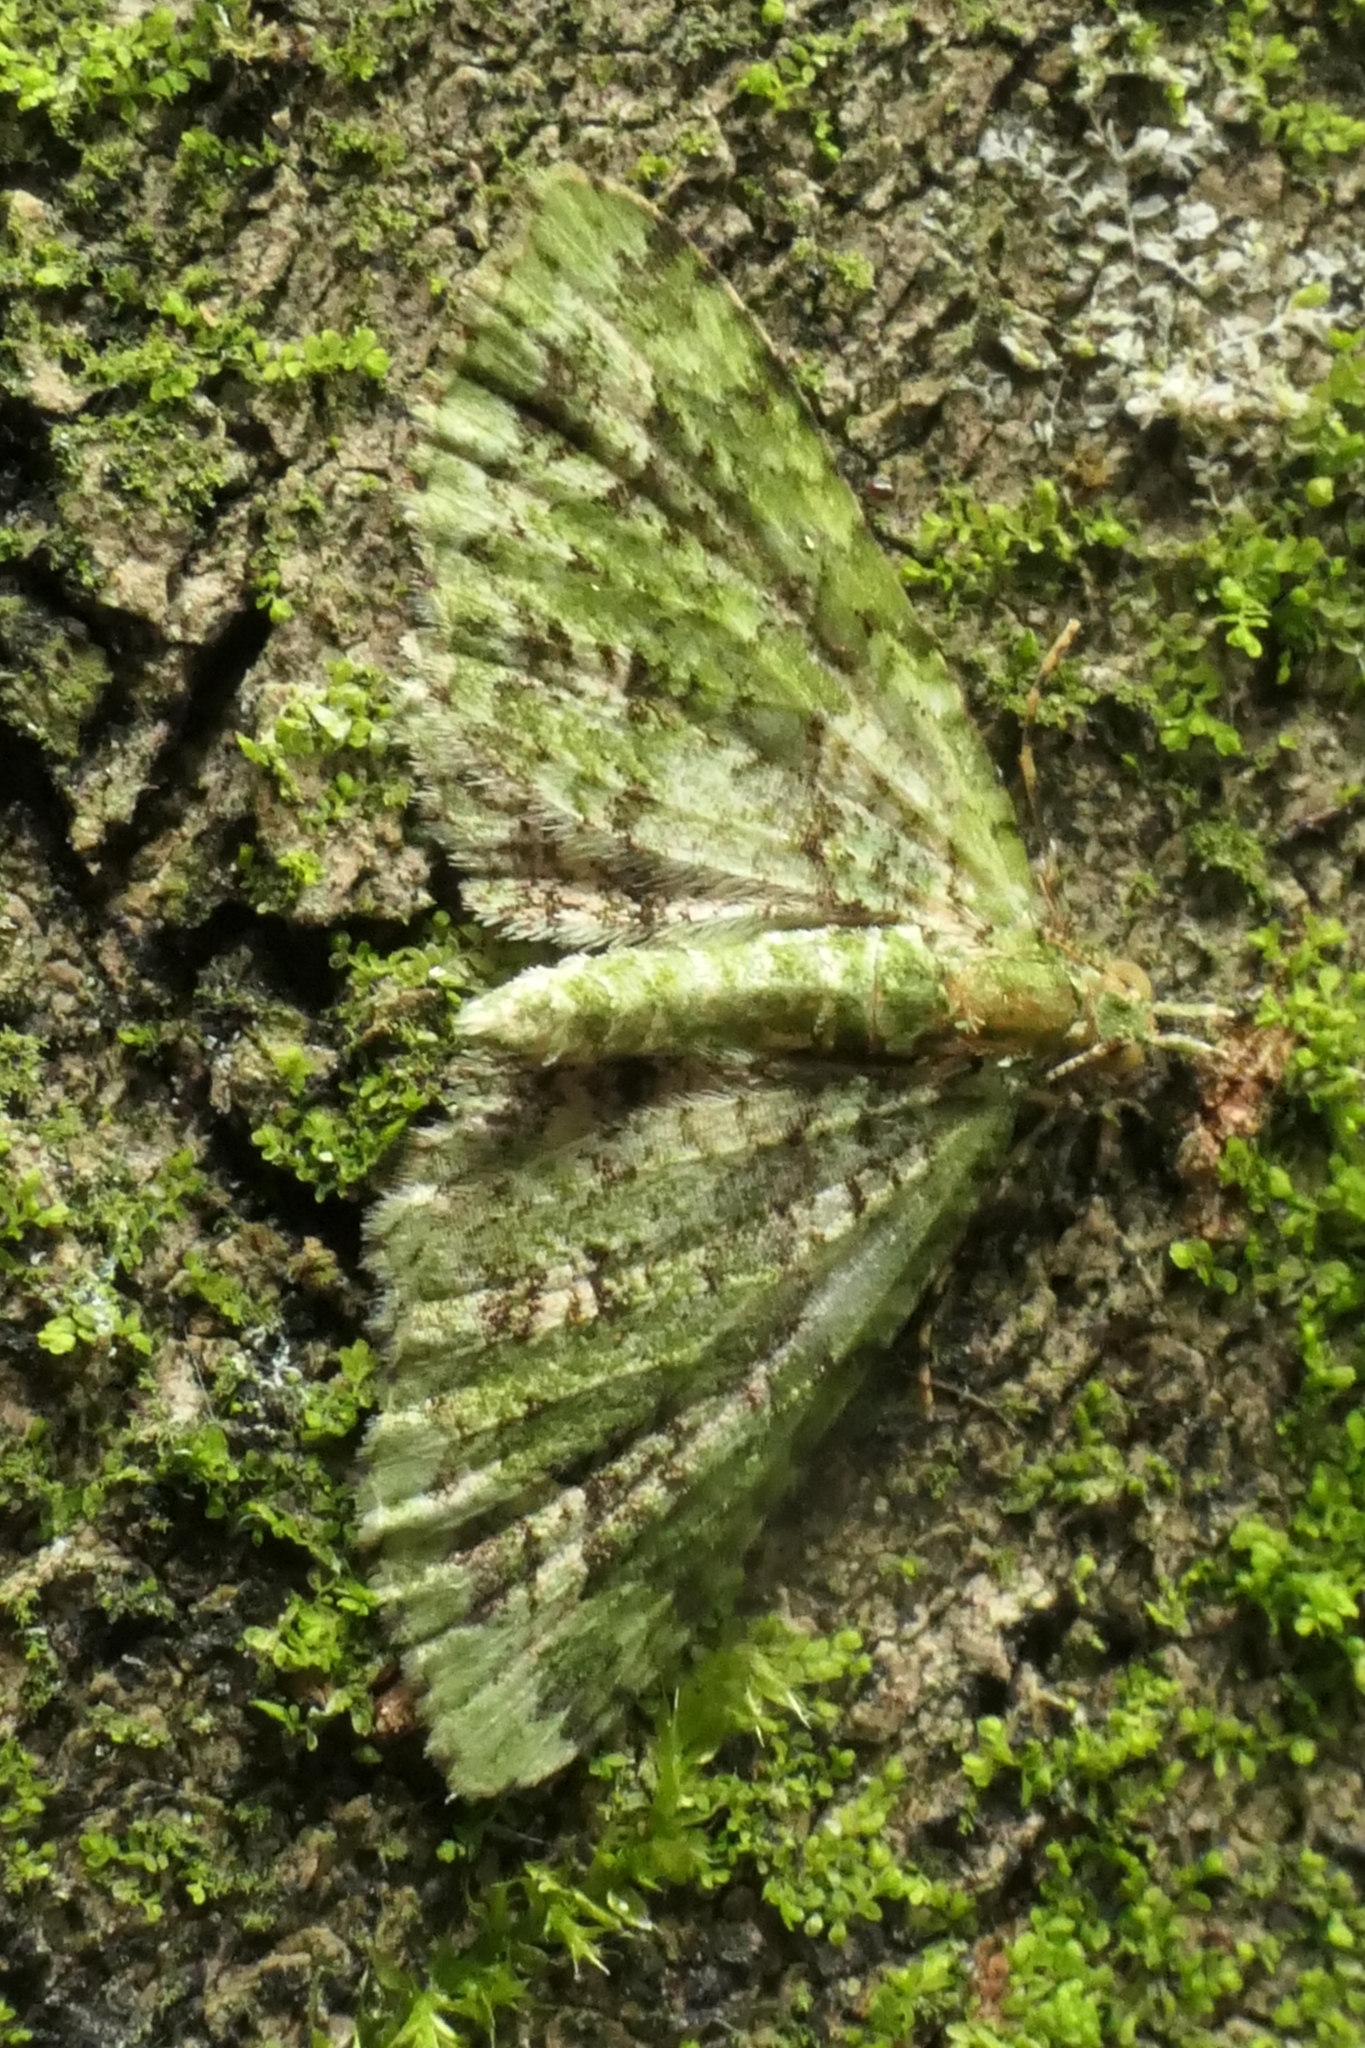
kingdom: Animalia
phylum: Arthropoda
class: Insecta
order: Lepidoptera
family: Geometridae
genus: Pasiphila
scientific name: Pasiphila muscosata
